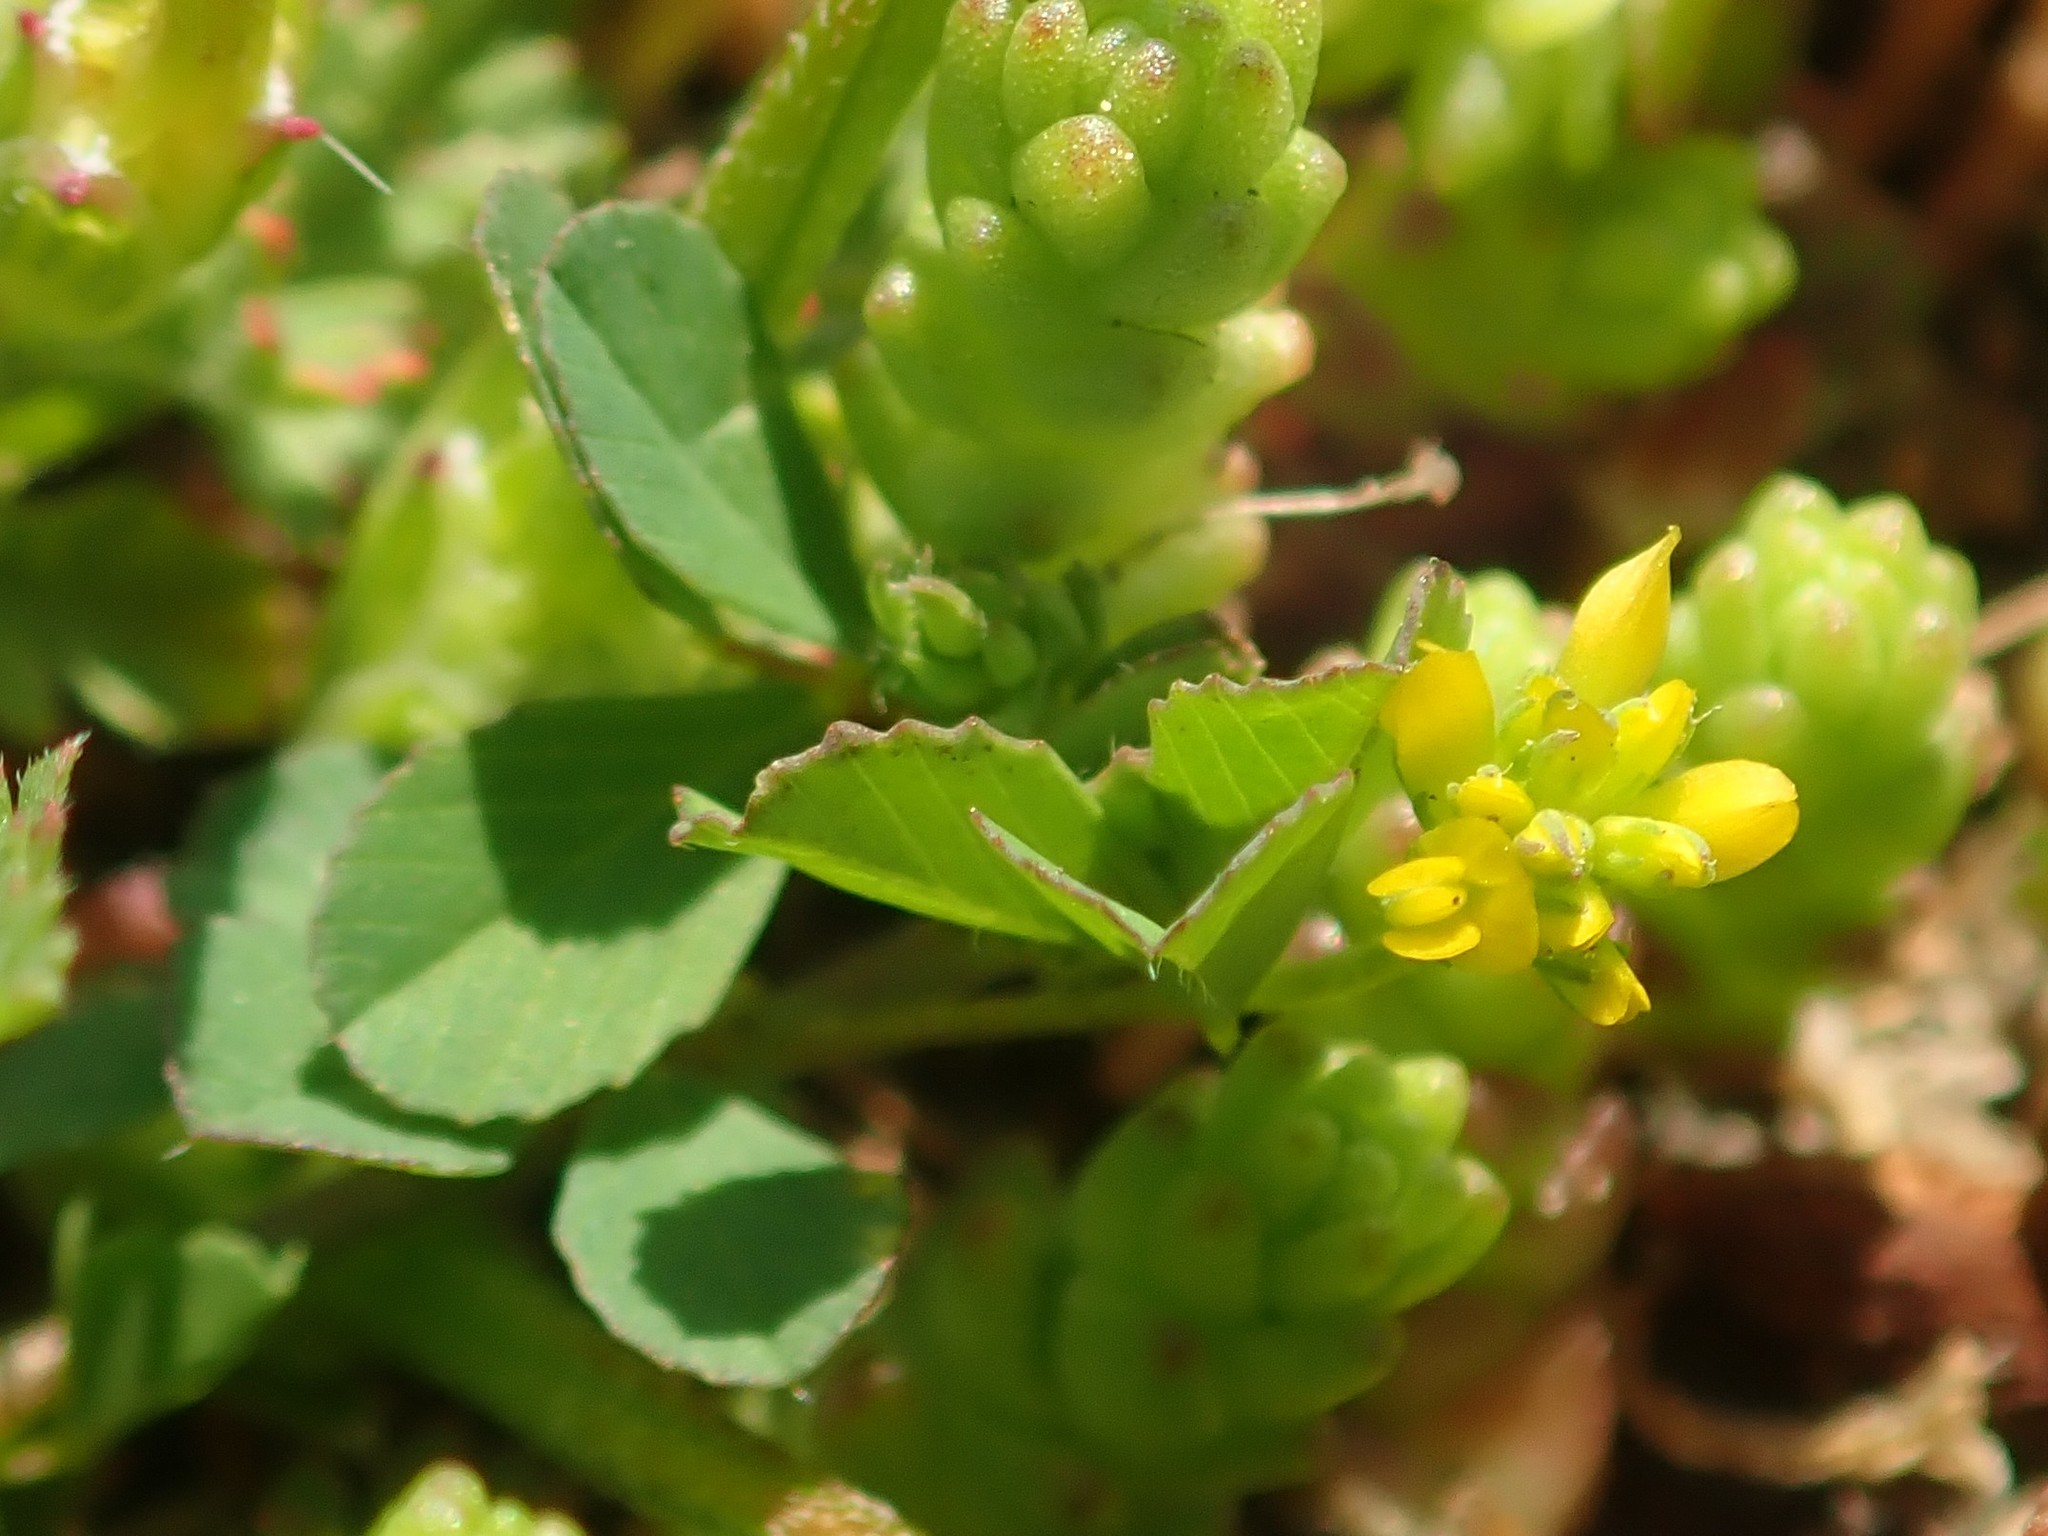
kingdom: Plantae
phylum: Tracheophyta
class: Magnoliopsida
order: Fabales
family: Fabaceae
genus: Trifolium
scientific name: Trifolium dubium
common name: Suckling clover
